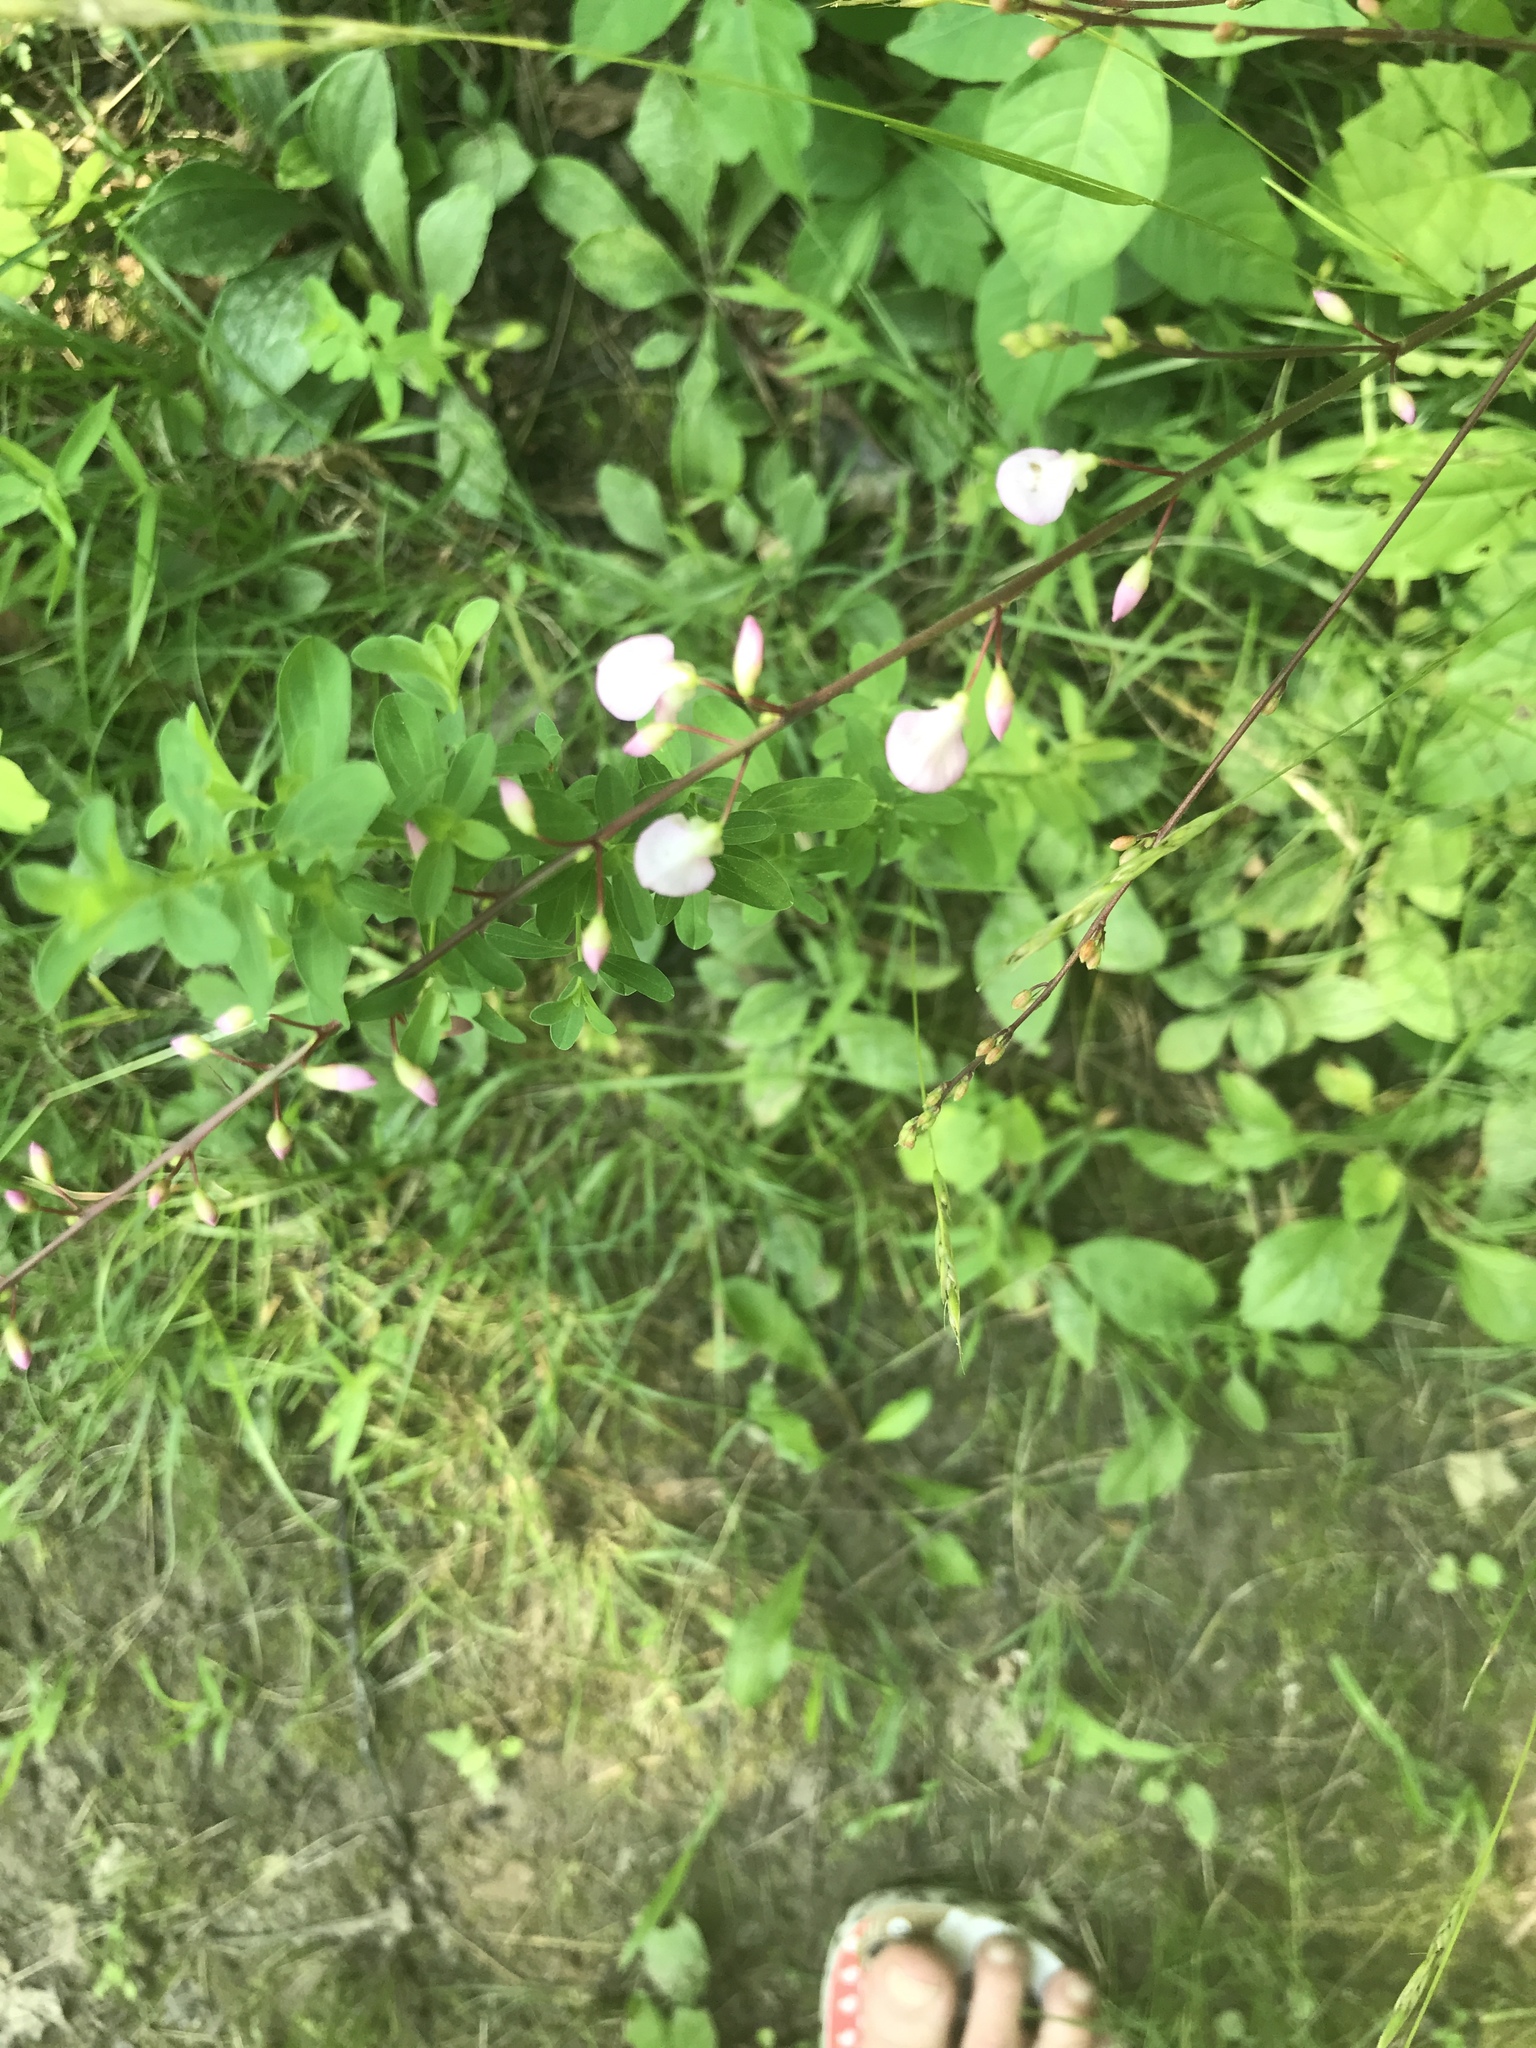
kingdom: Plantae
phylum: Tracheophyta
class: Magnoliopsida
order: Fabales
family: Fabaceae
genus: Hylodesmum
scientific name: Hylodesmum glutinosum
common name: Clustered-leaved tick-trefoil
